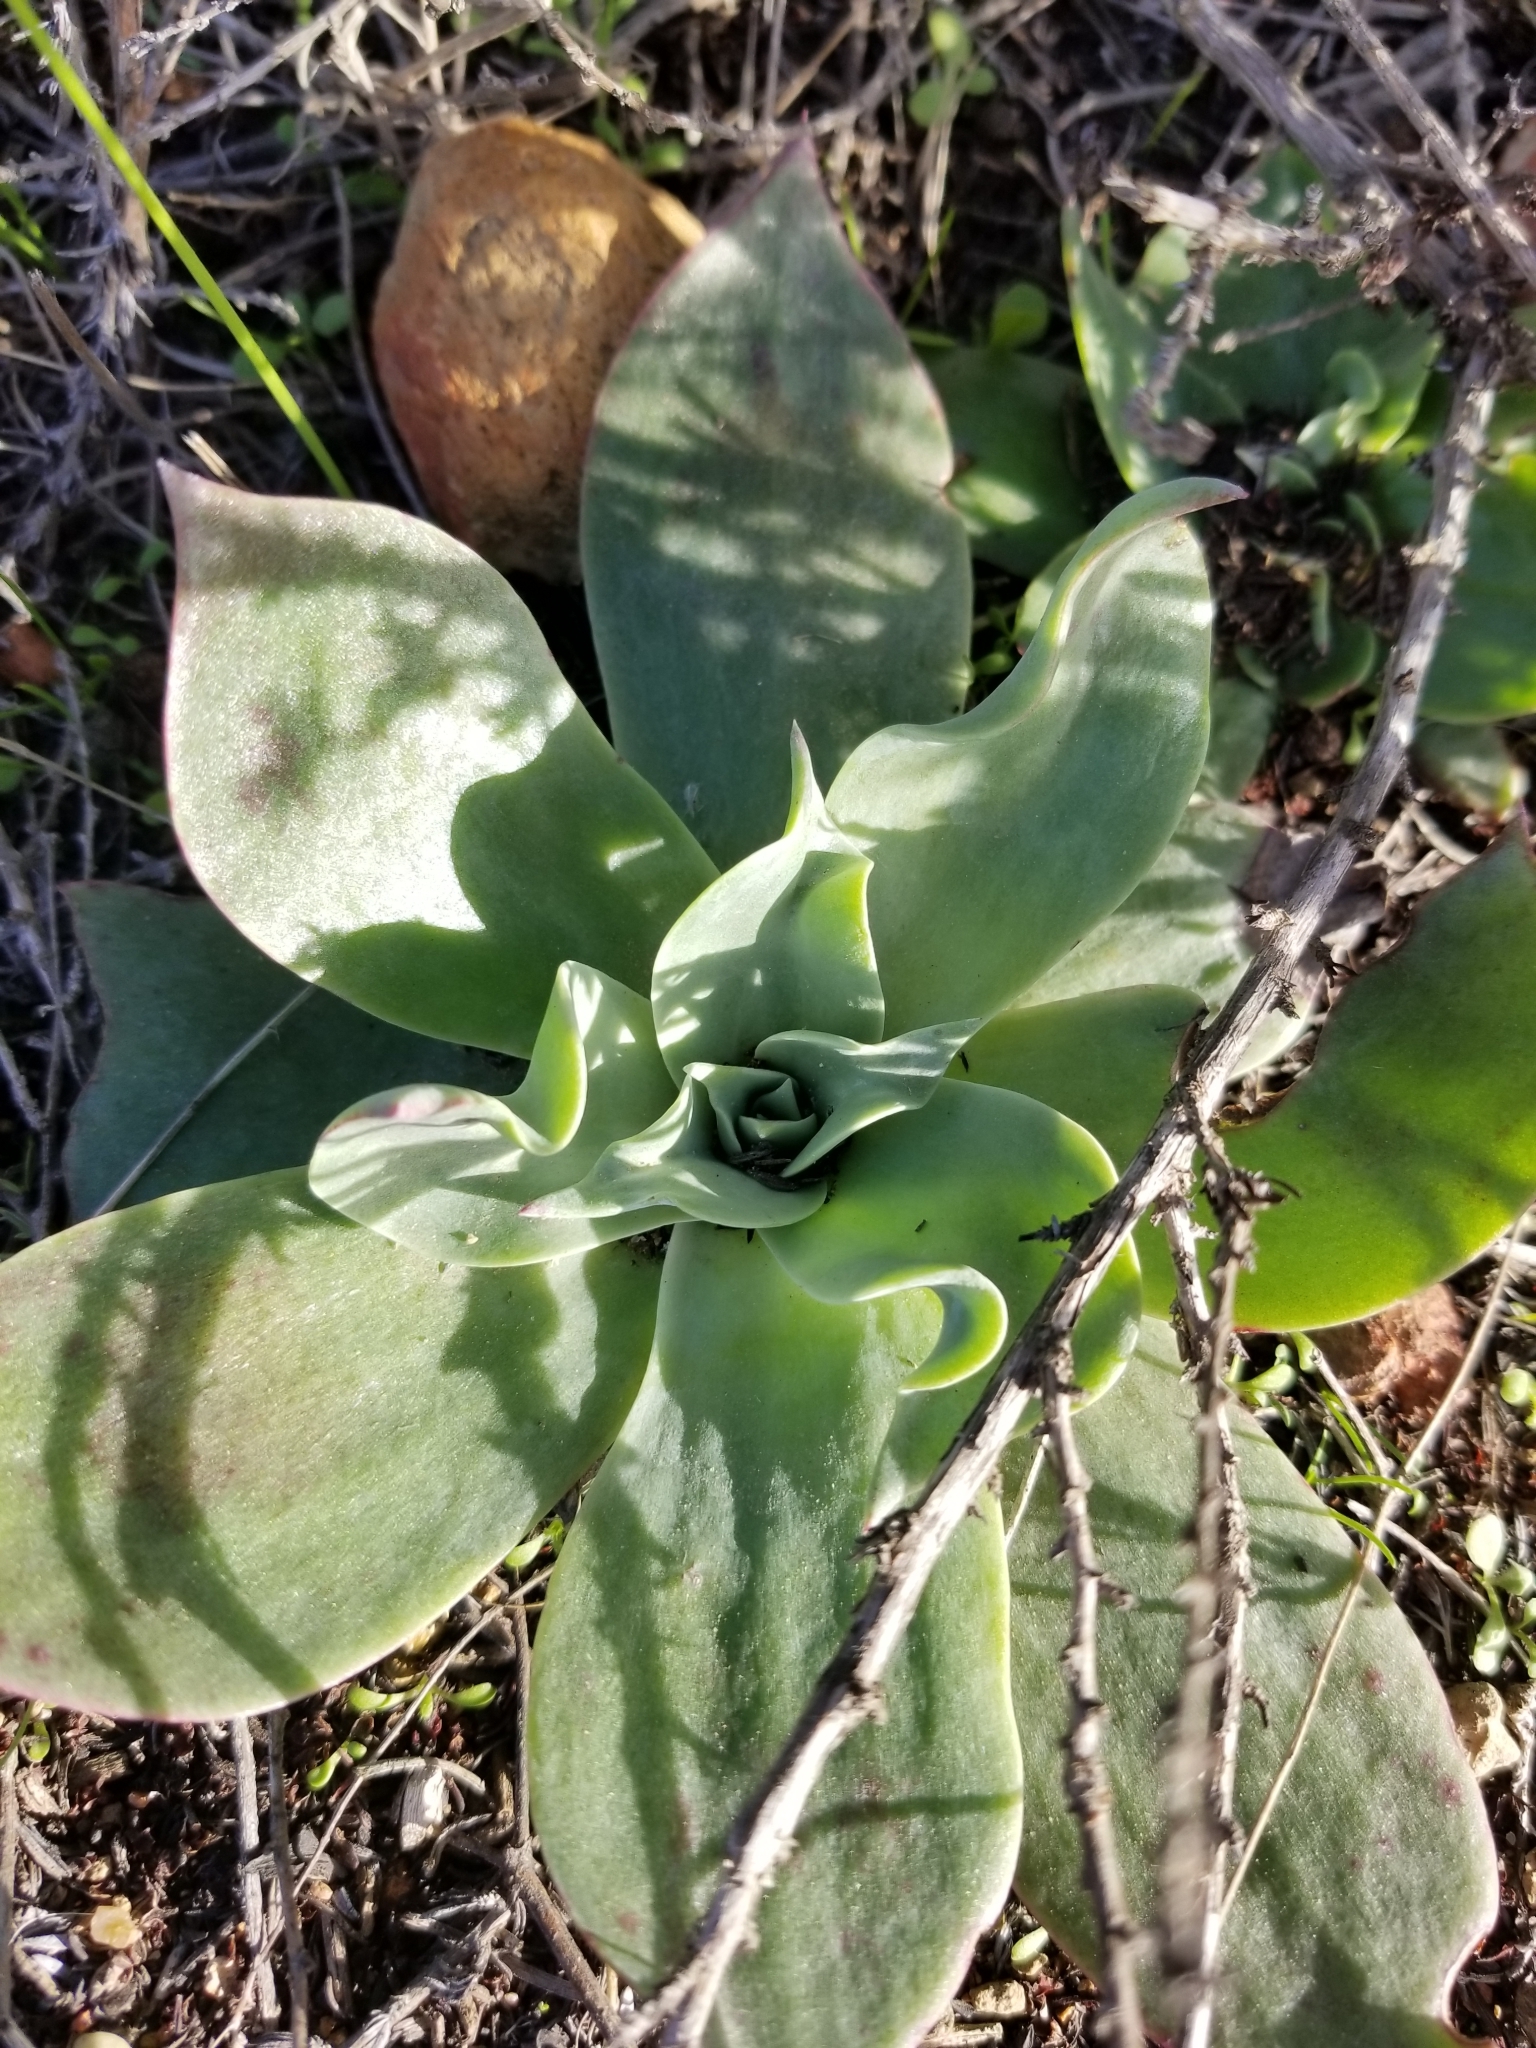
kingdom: Plantae
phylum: Tracheophyta
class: Magnoliopsida
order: Saxifragales
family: Crassulaceae
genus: Dudleya
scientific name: Dudleya pulverulenta
